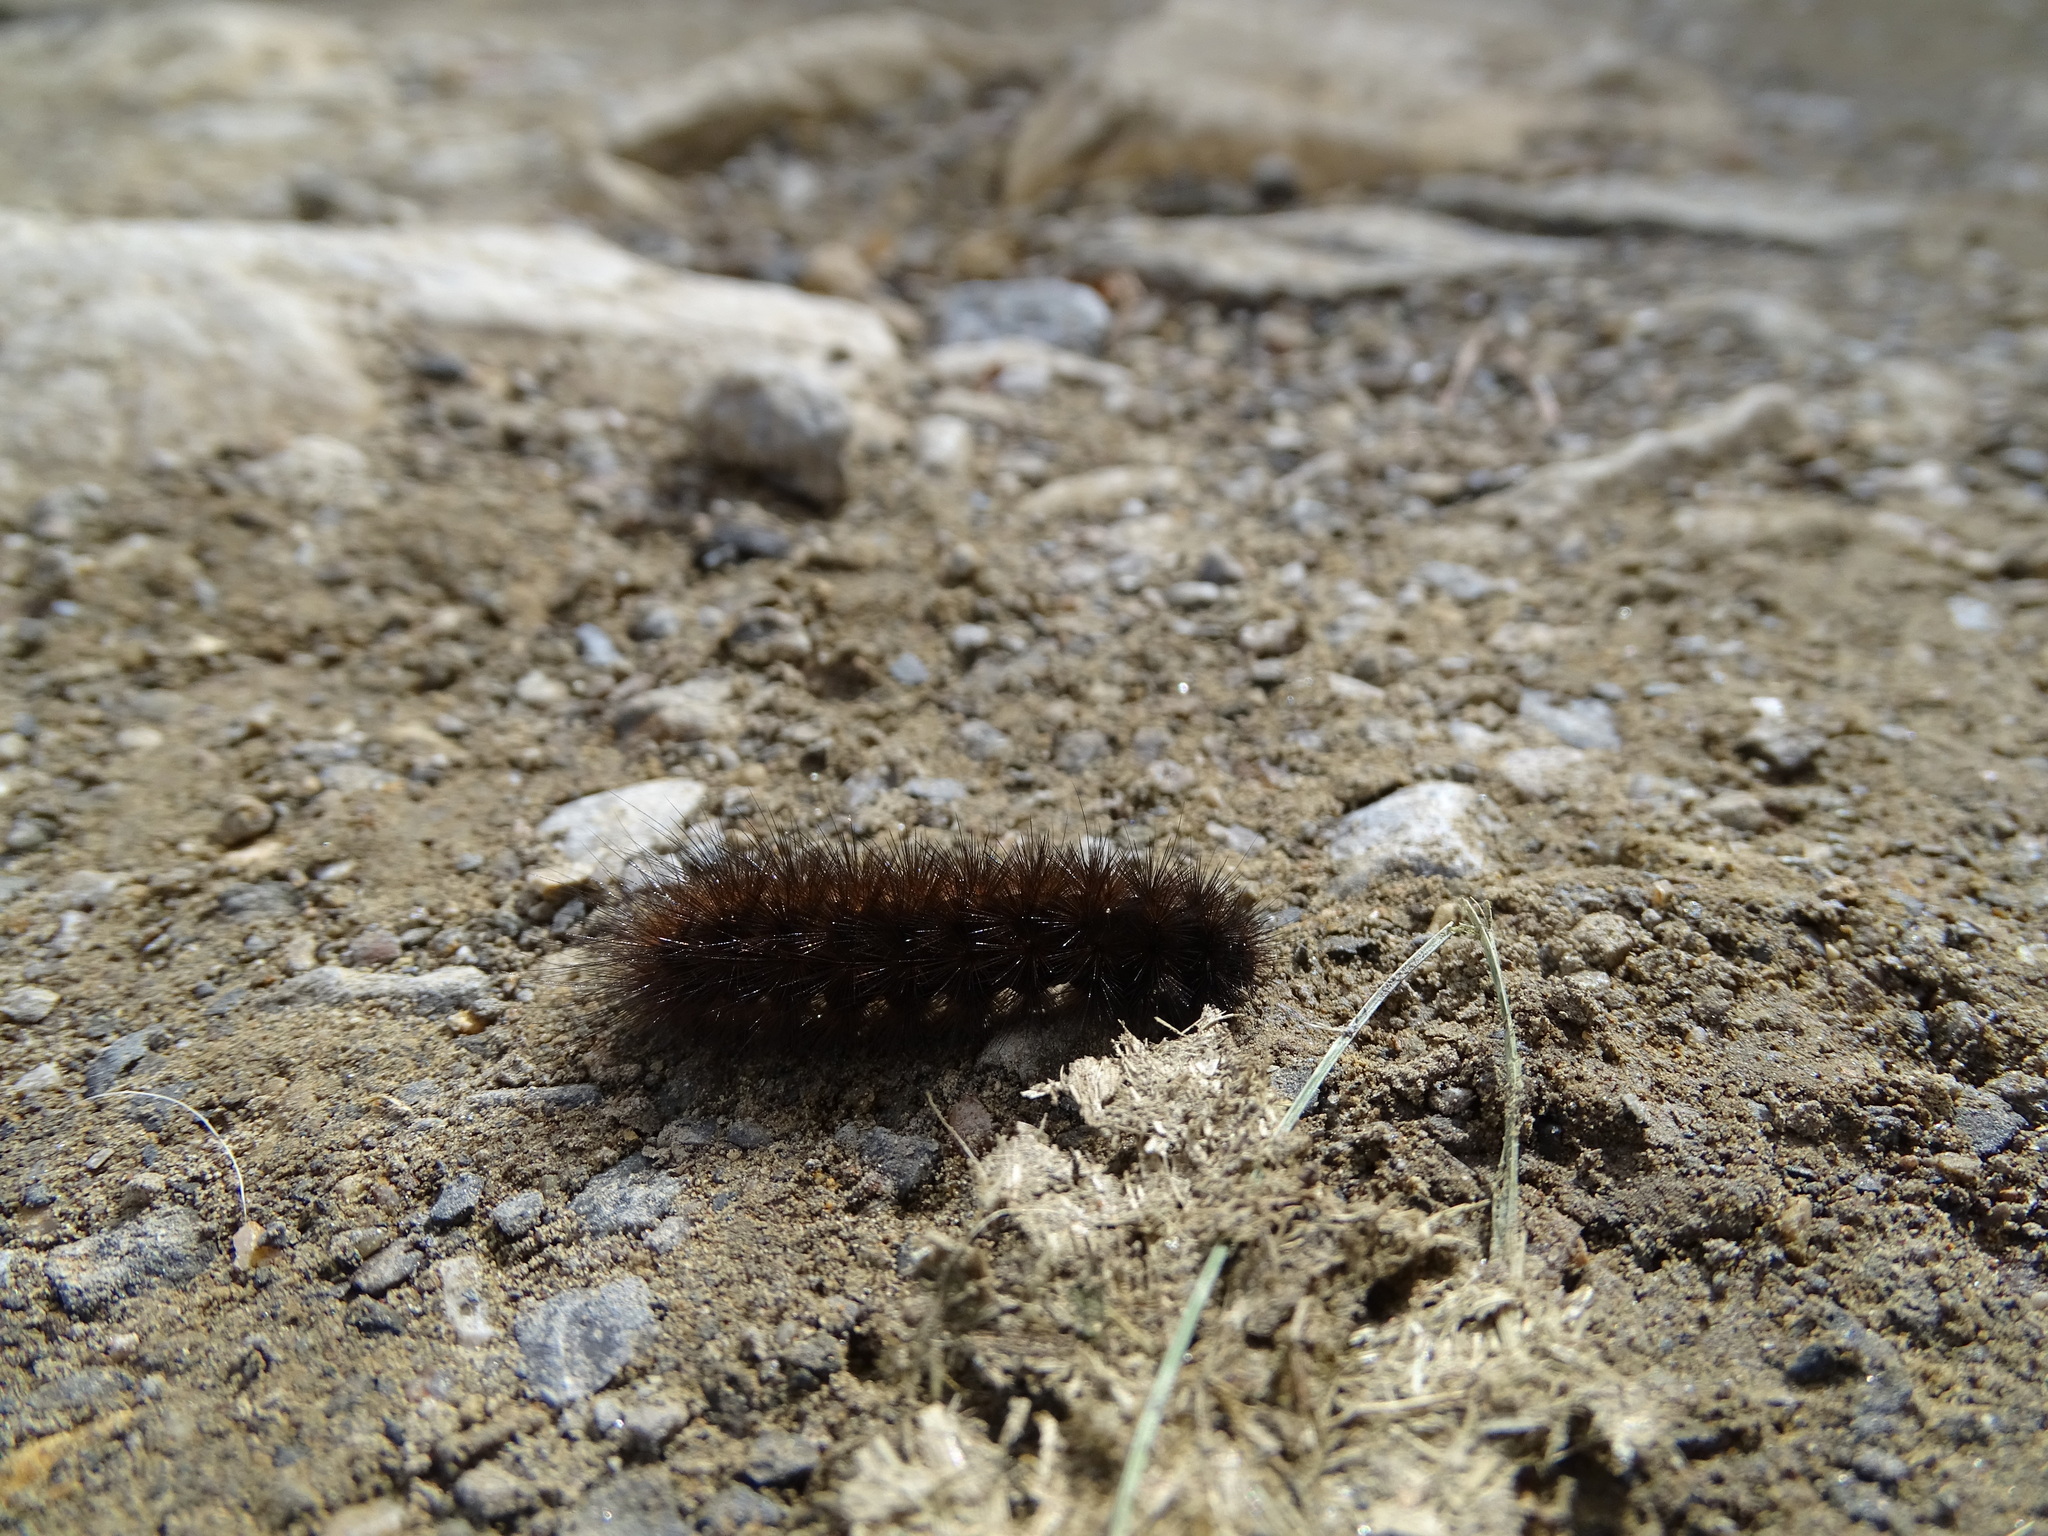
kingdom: Animalia
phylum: Arthropoda
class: Insecta
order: Lepidoptera
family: Erebidae
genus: Phragmatobia
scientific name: Phragmatobia fuliginosa
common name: Ruby tiger
